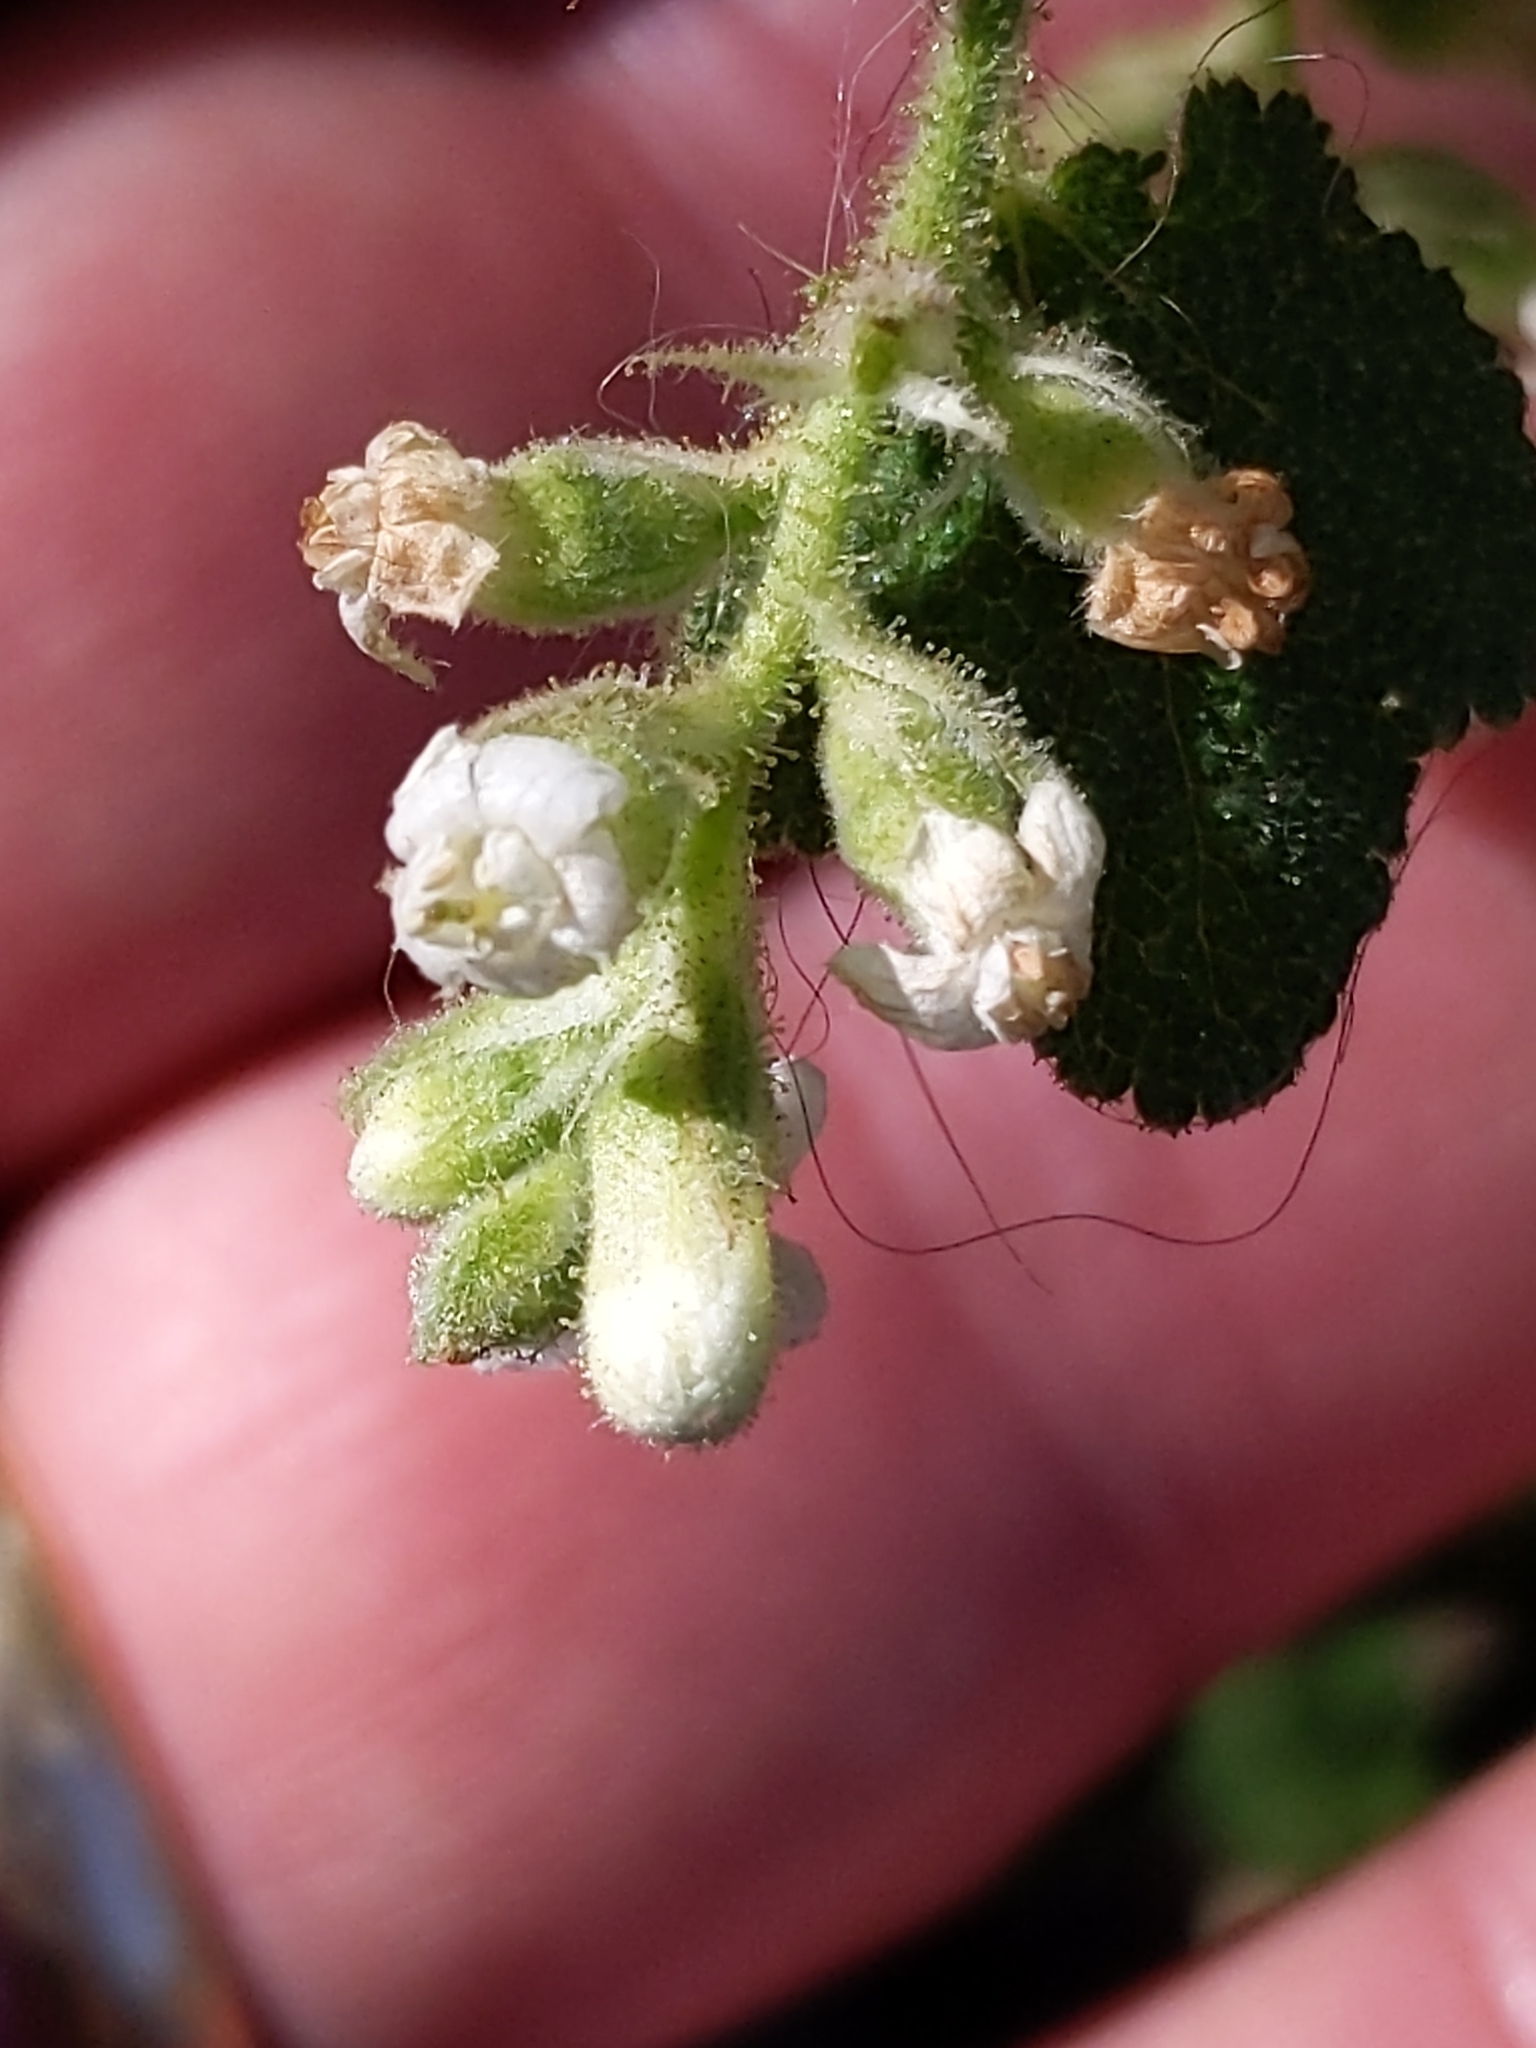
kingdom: Plantae
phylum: Tracheophyta
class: Magnoliopsida
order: Saxifragales
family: Grossulariaceae
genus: Ribes
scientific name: Ribes indecorum
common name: White-flower currant
